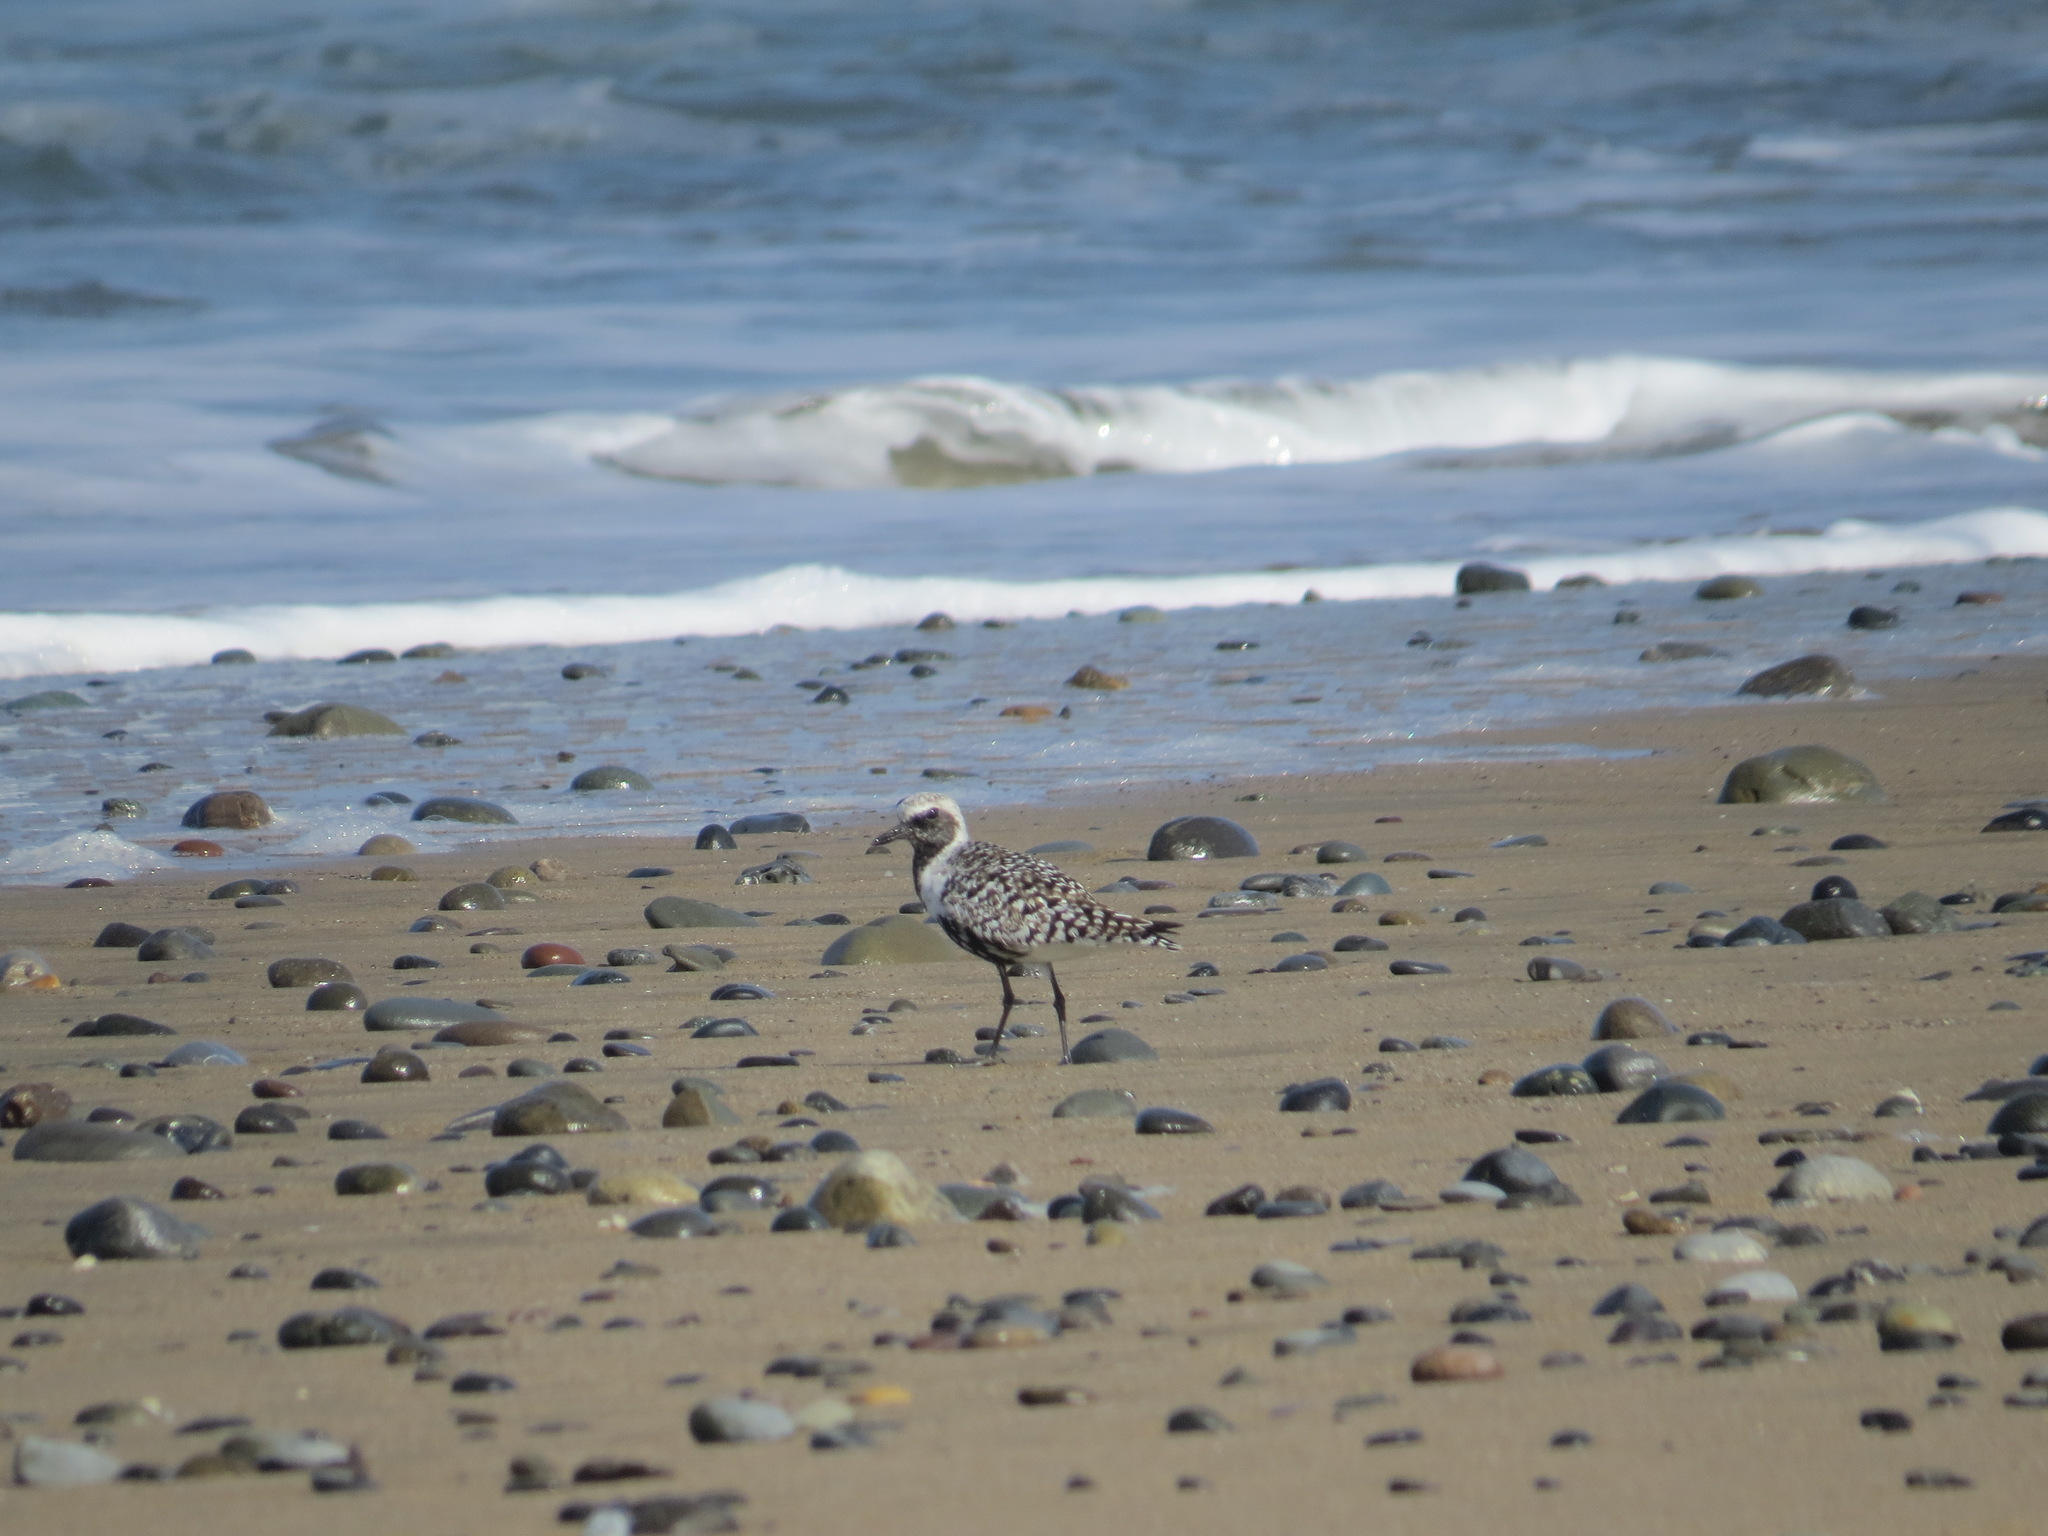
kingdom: Animalia
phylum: Chordata
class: Aves
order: Charadriiformes
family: Charadriidae
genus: Pluvialis
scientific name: Pluvialis squatarola
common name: Grey plover
